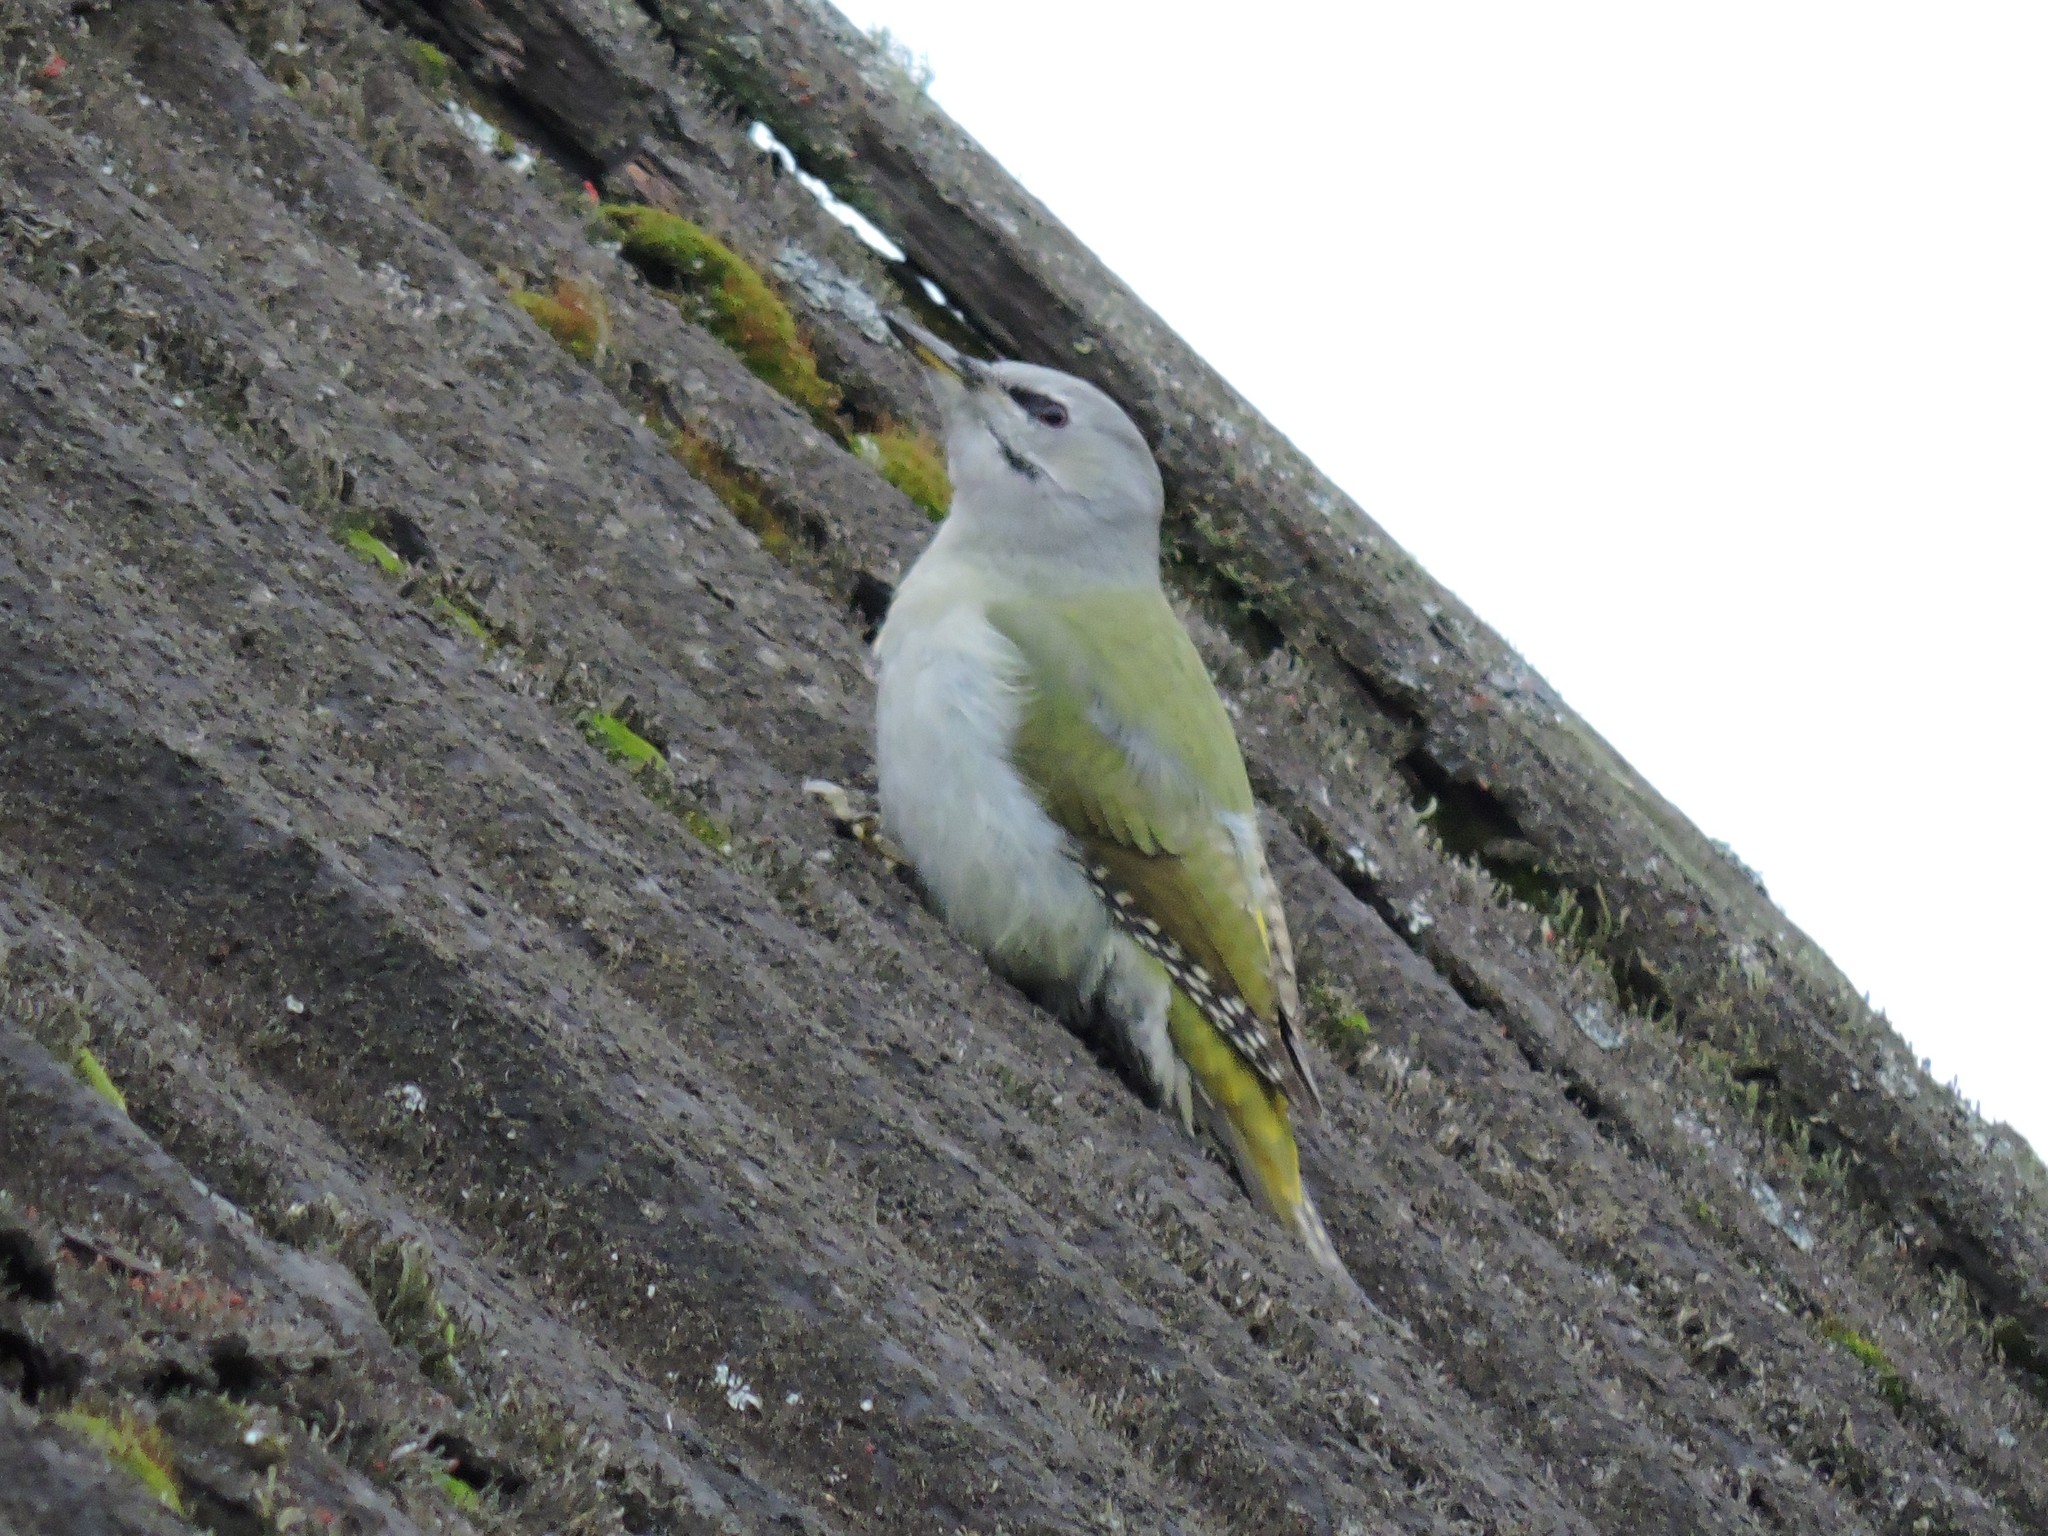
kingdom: Animalia
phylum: Chordata
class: Aves
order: Piciformes
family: Picidae
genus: Picus
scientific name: Picus canus
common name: Grey-headed woodpecker
